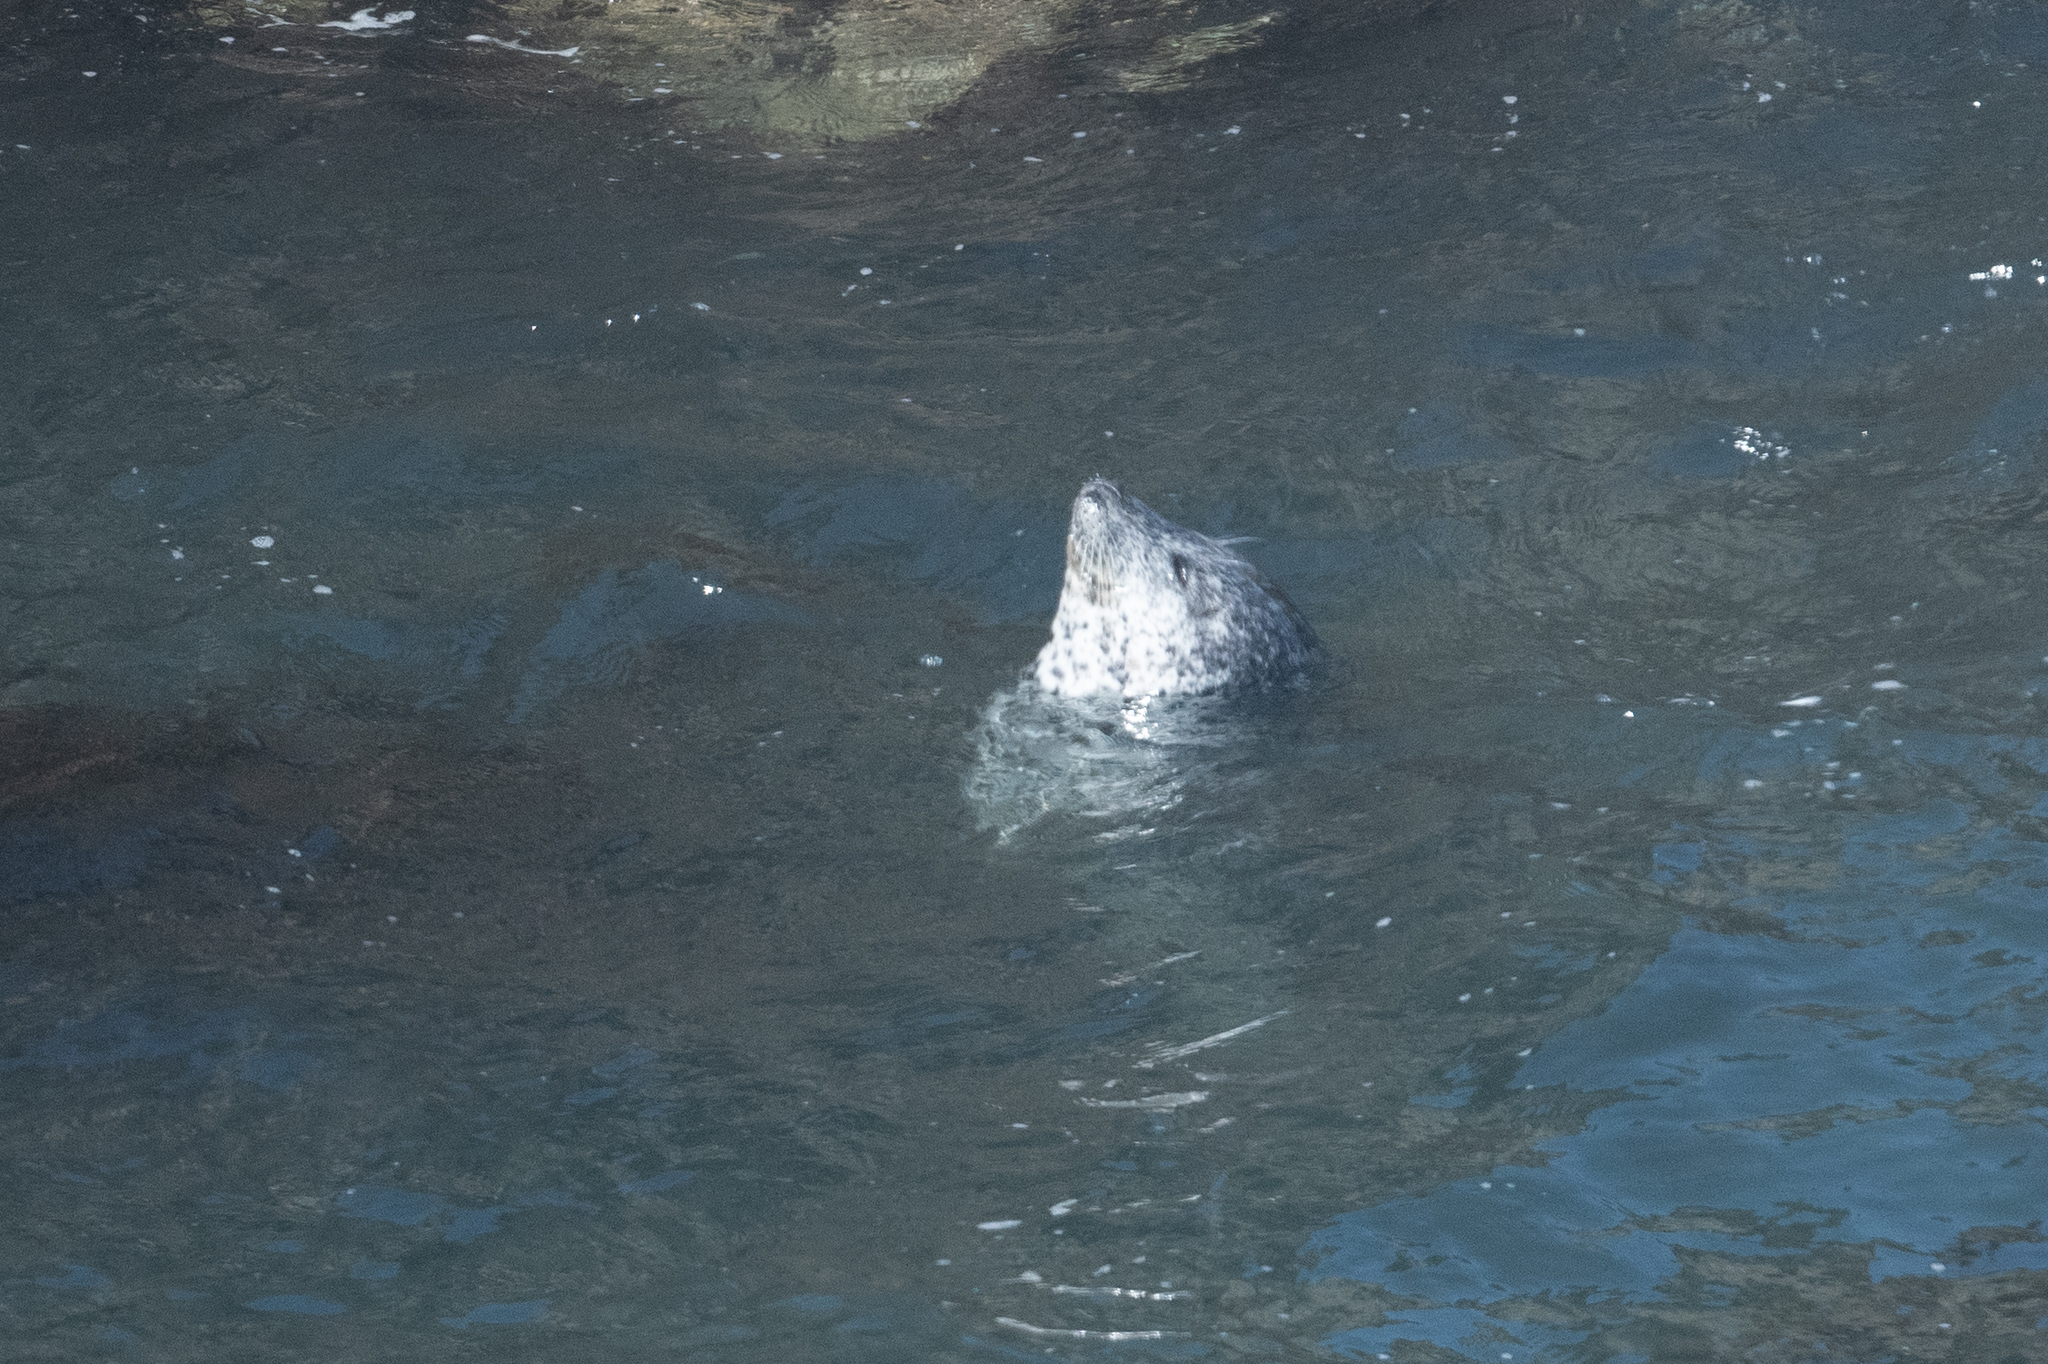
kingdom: Animalia
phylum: Chordata
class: Mammalia
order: Carnivora
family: Phocidae
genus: Phoca
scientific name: Phoca vitulina
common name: Harbor seal
